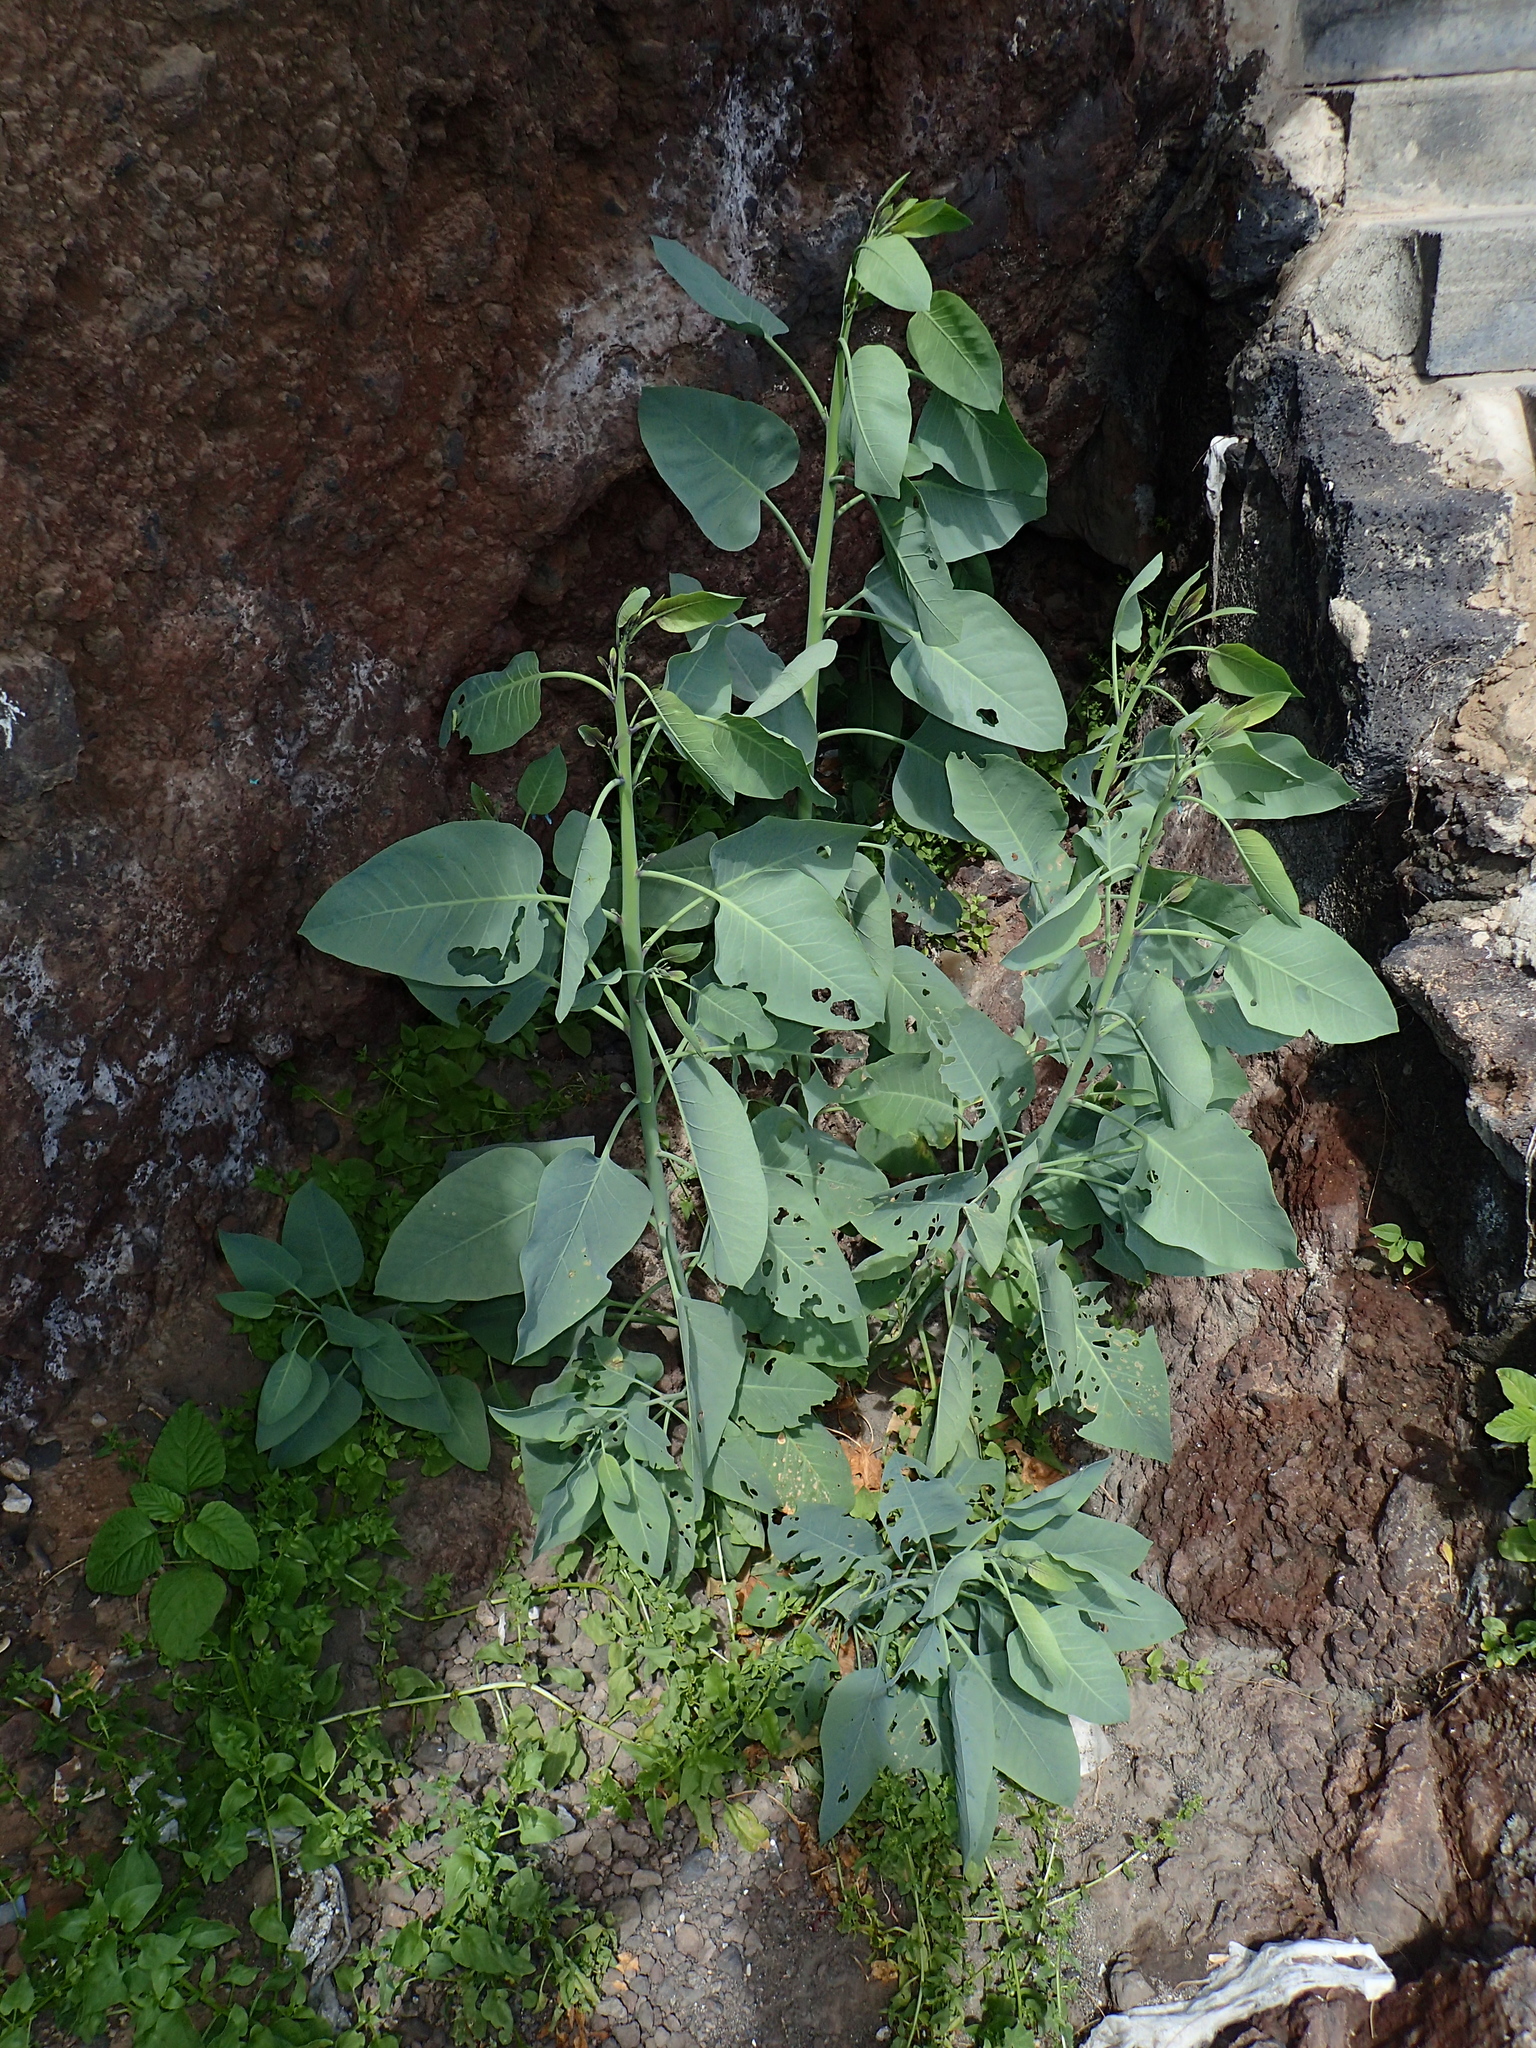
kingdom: Plantae
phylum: Tracheophyta
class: Magnoliopsida
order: Solanales
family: Solanaceae
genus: Nicotiana
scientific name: Nicotiana glauca
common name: Tree tobacco
